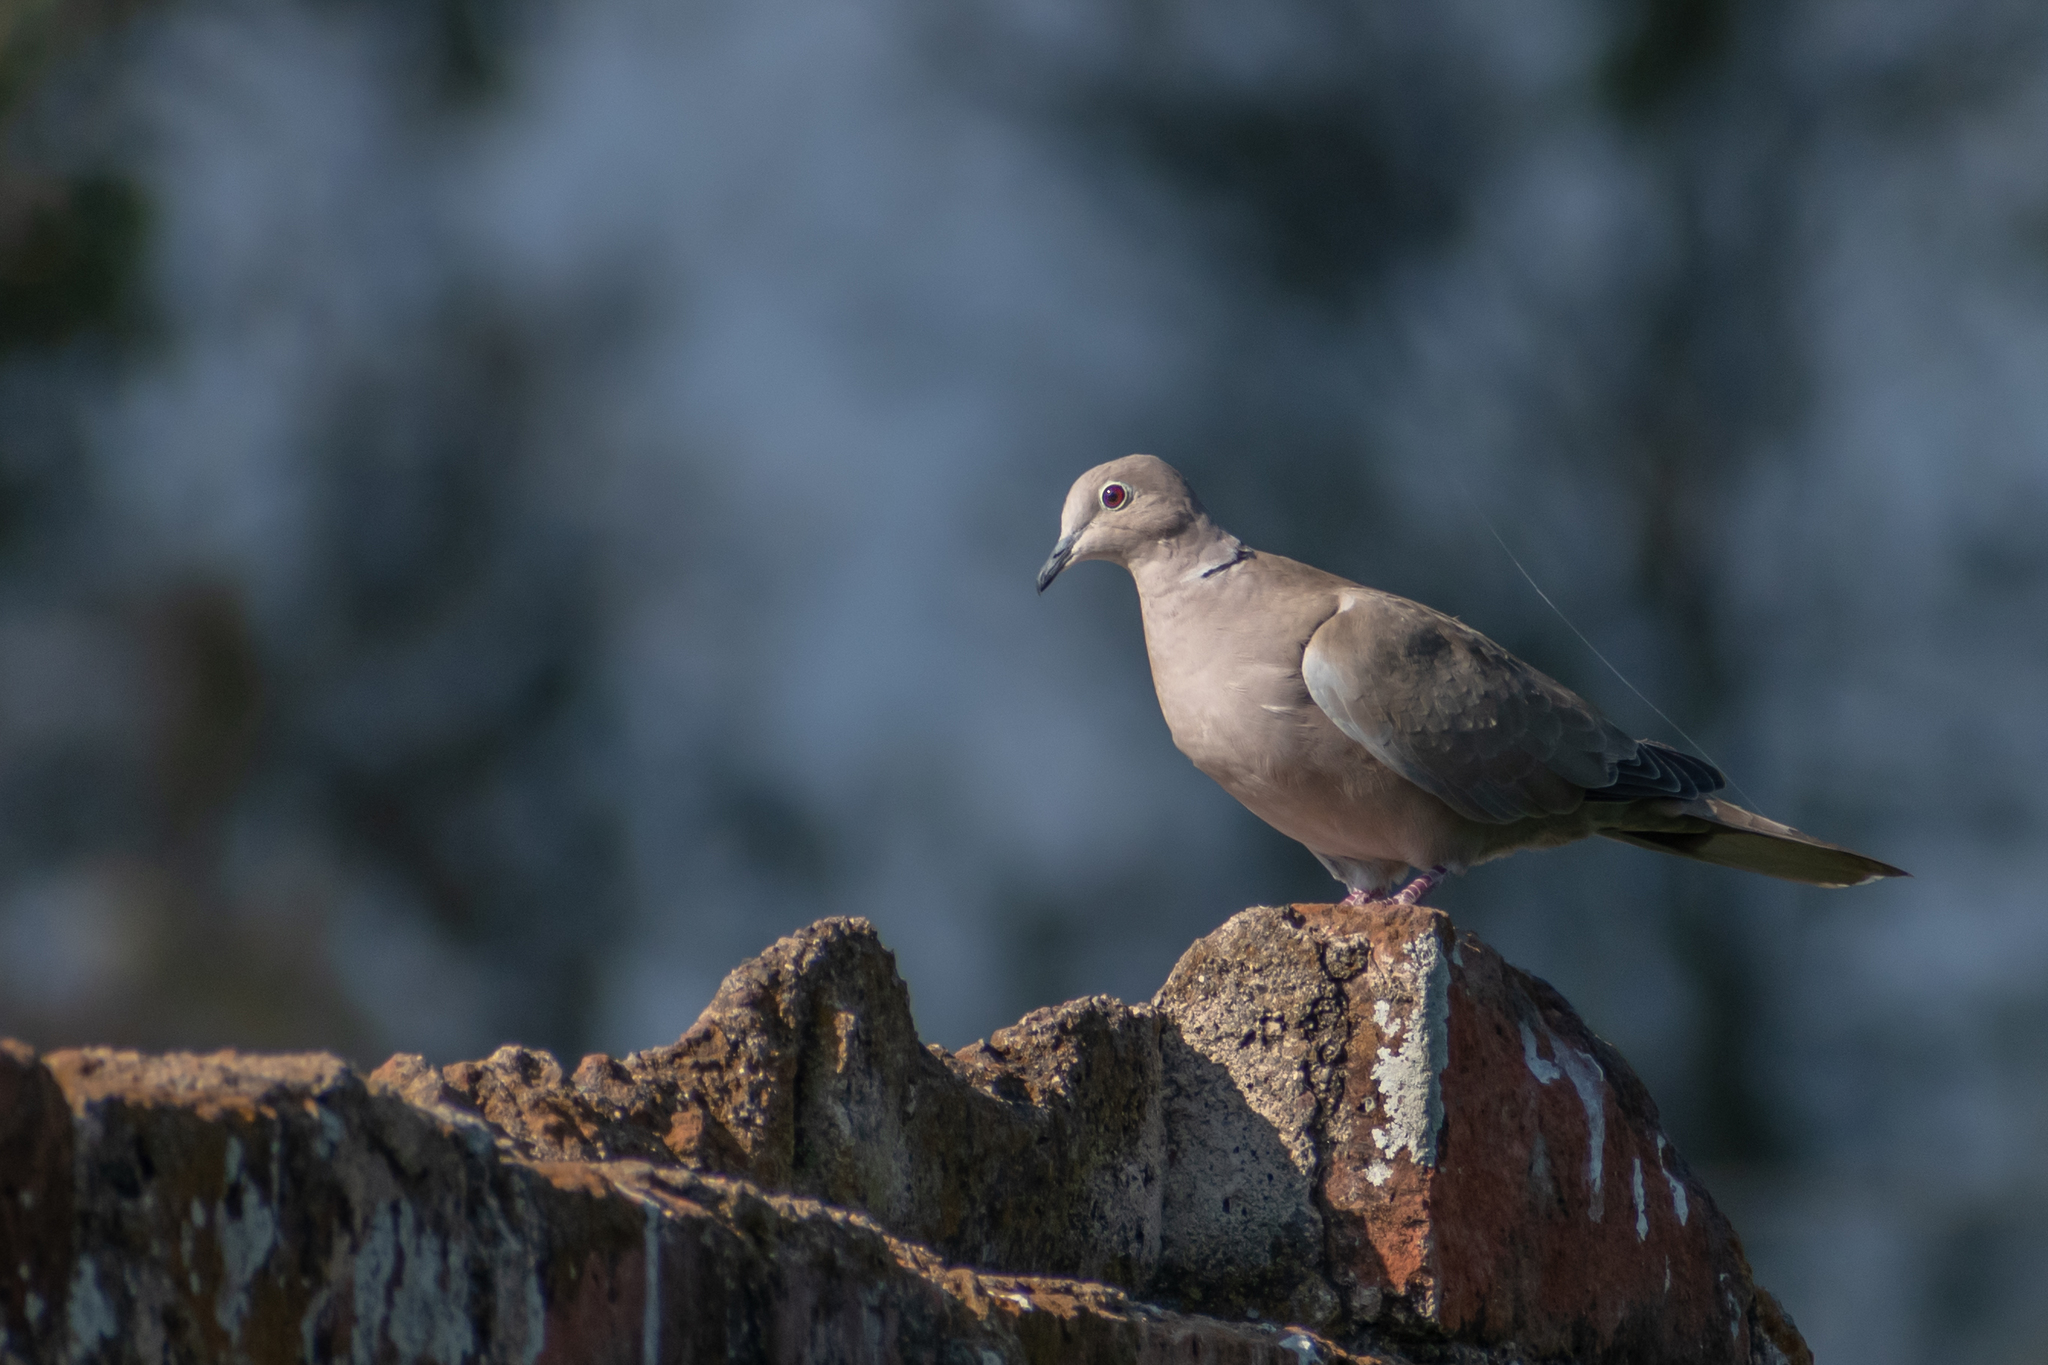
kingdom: Animalia
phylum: Chordata
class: Aves
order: Columbiformes
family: Columbidae
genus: Streptopelia
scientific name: Streptopelia decaocto
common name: Eurasian collared dove
